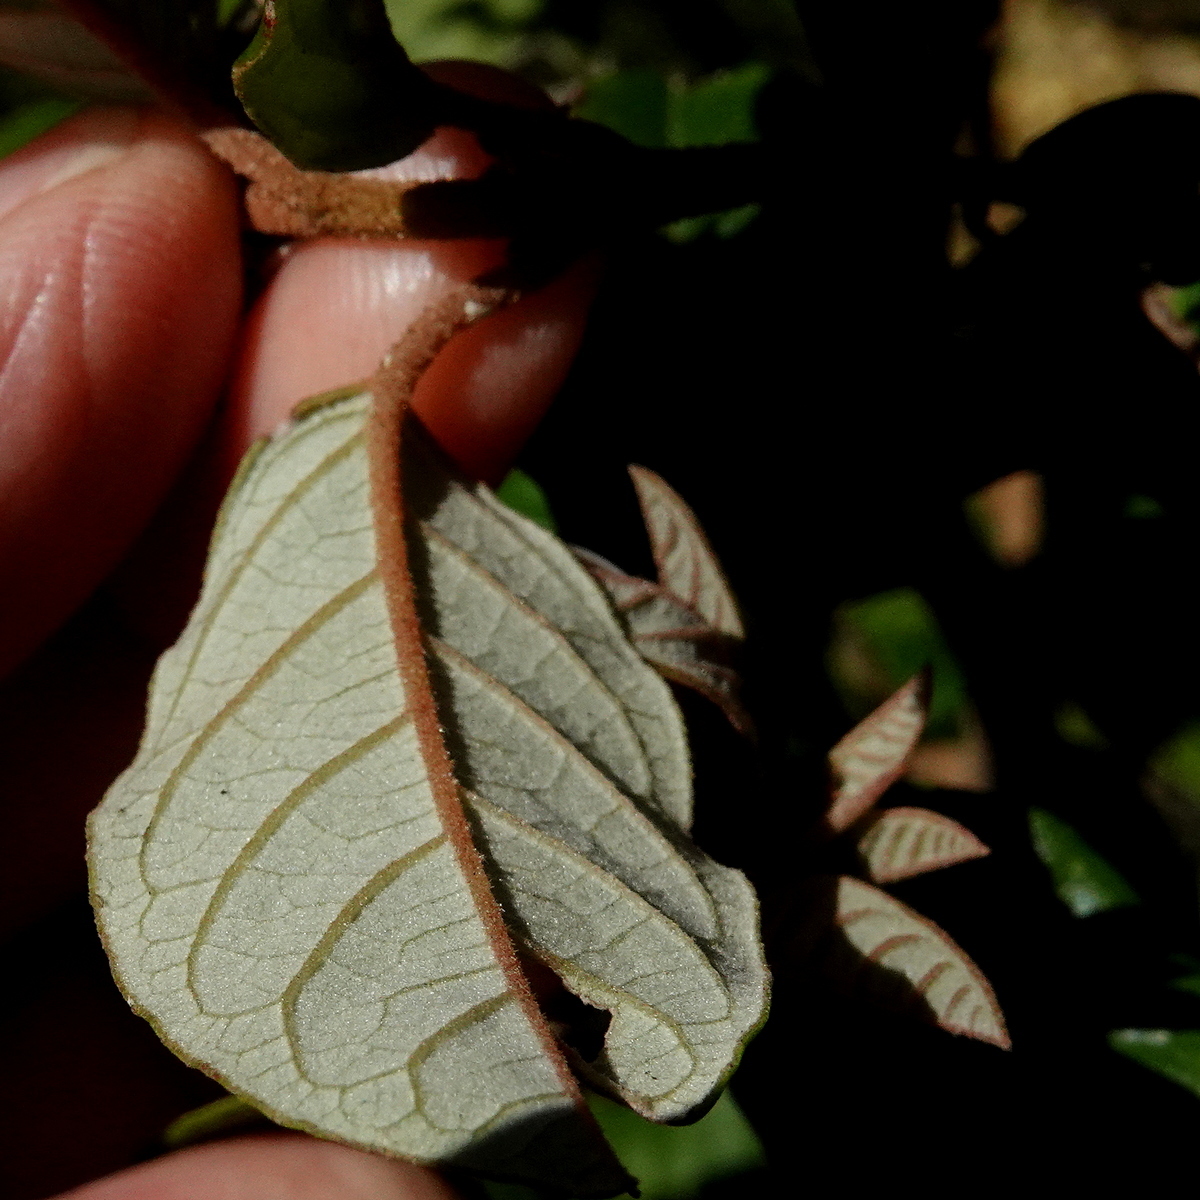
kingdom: Plantae
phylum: Tracheophyta
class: Magnoliopsida
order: Rosales
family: Rhamnaceae
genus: Pomaderris
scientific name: Pomaderris elliptica
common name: Yellow-dogwood
